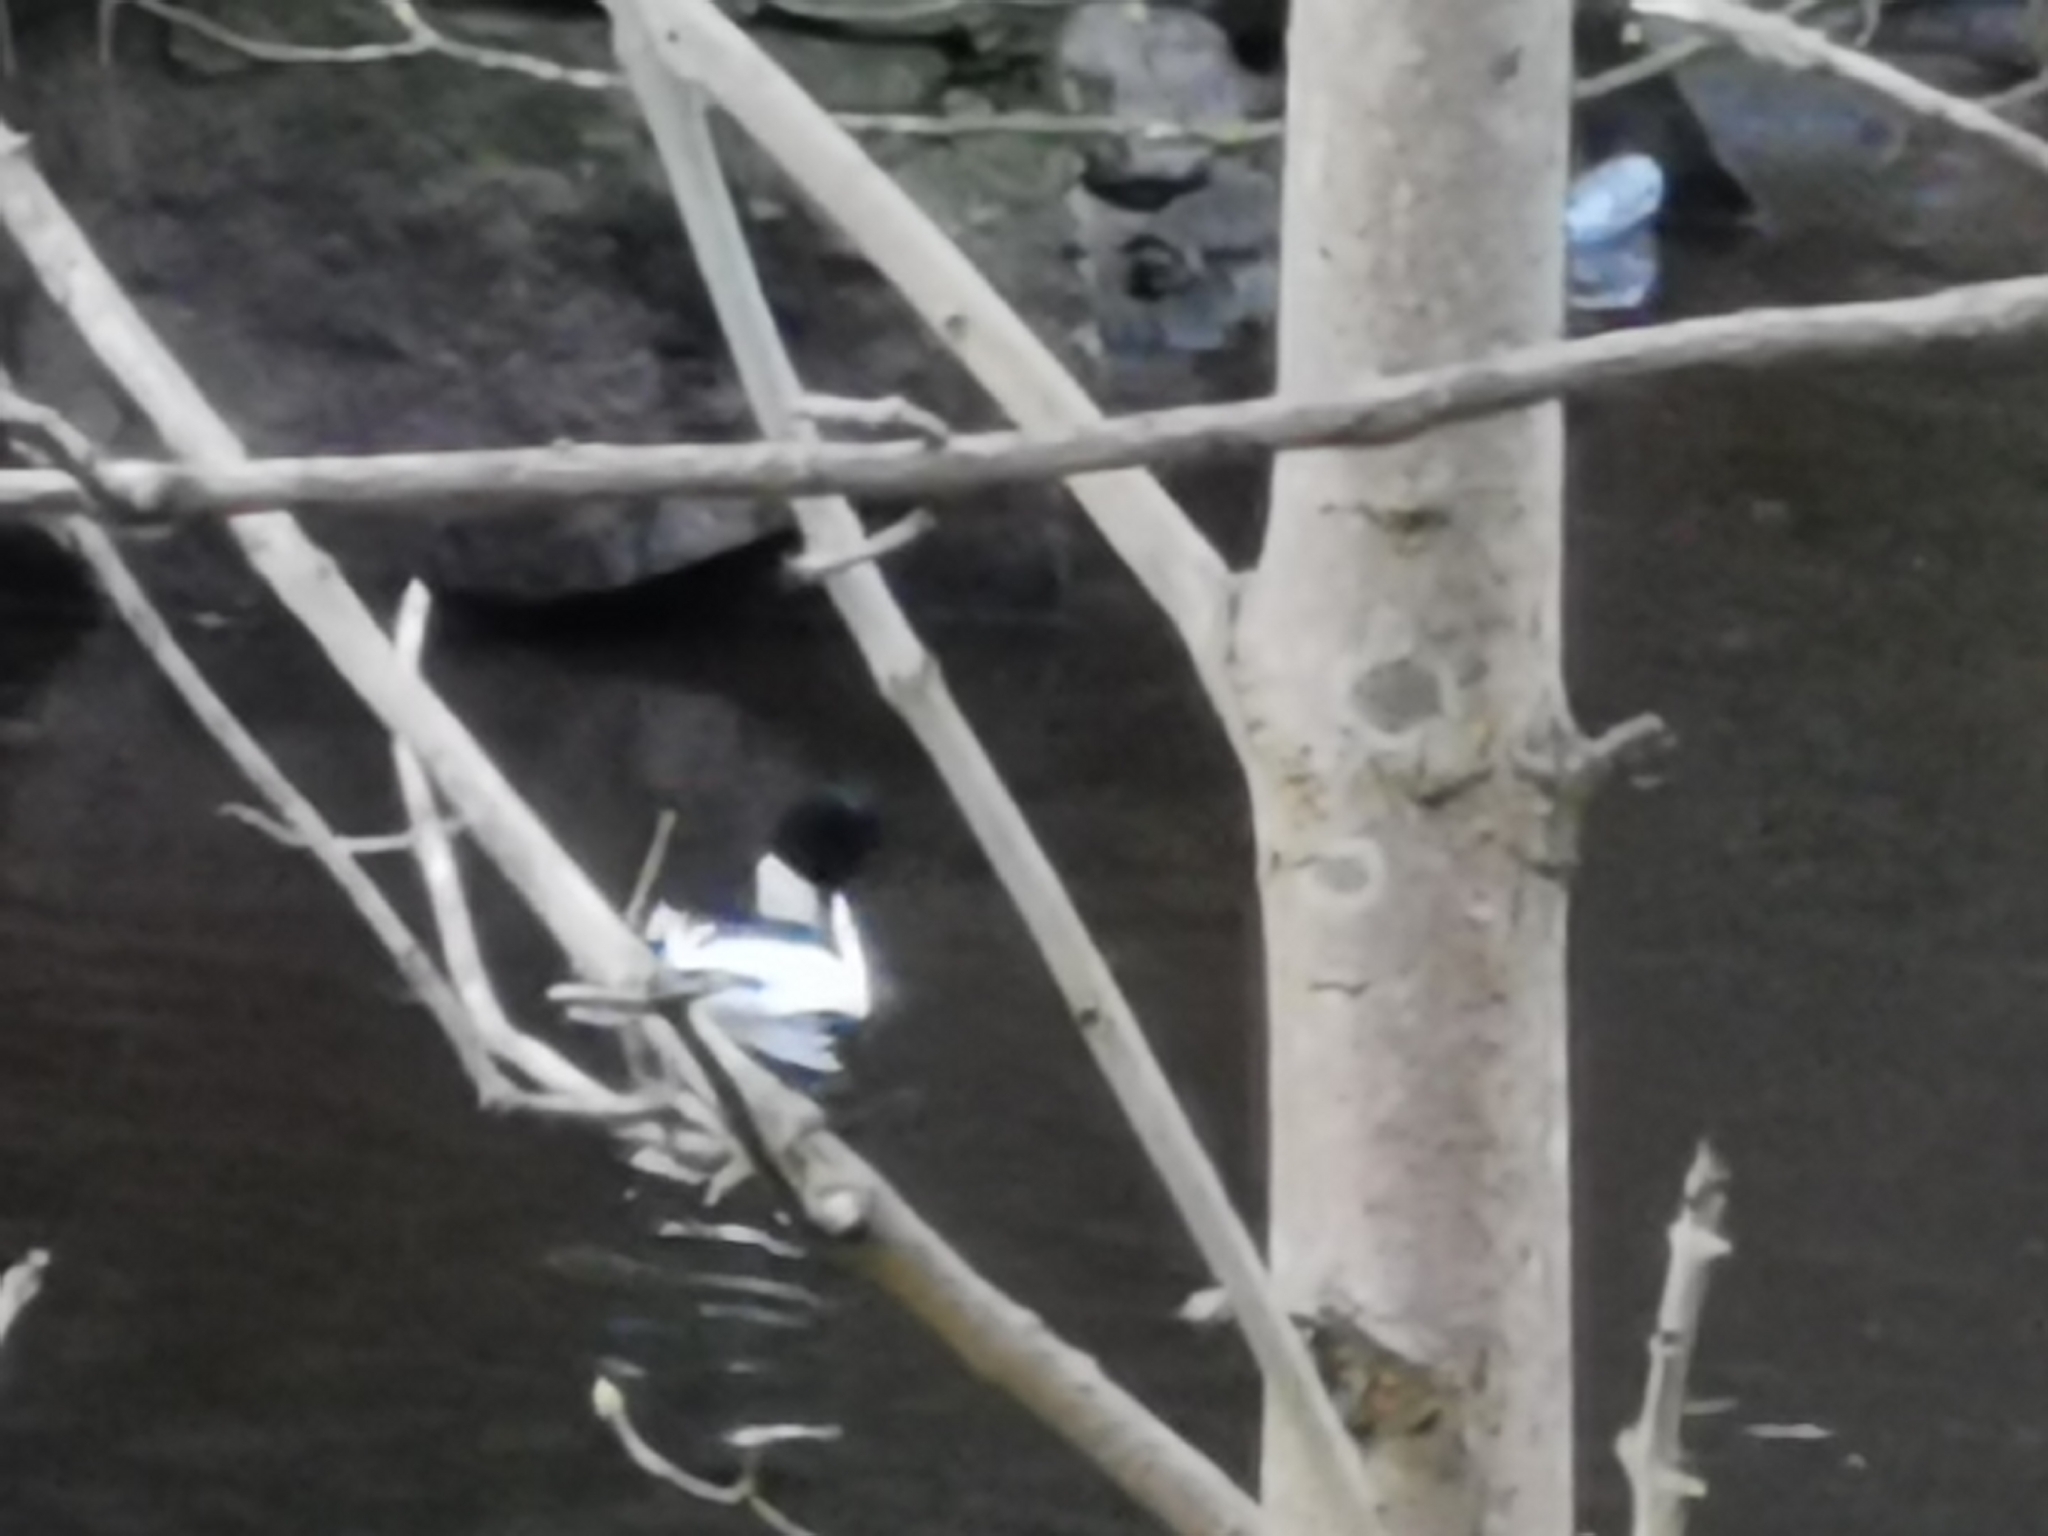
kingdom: Animalia
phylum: Chordata
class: Aves
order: Anseriformes
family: Anatidae
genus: Mergus
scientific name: Mergus merganser
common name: Common merganser
